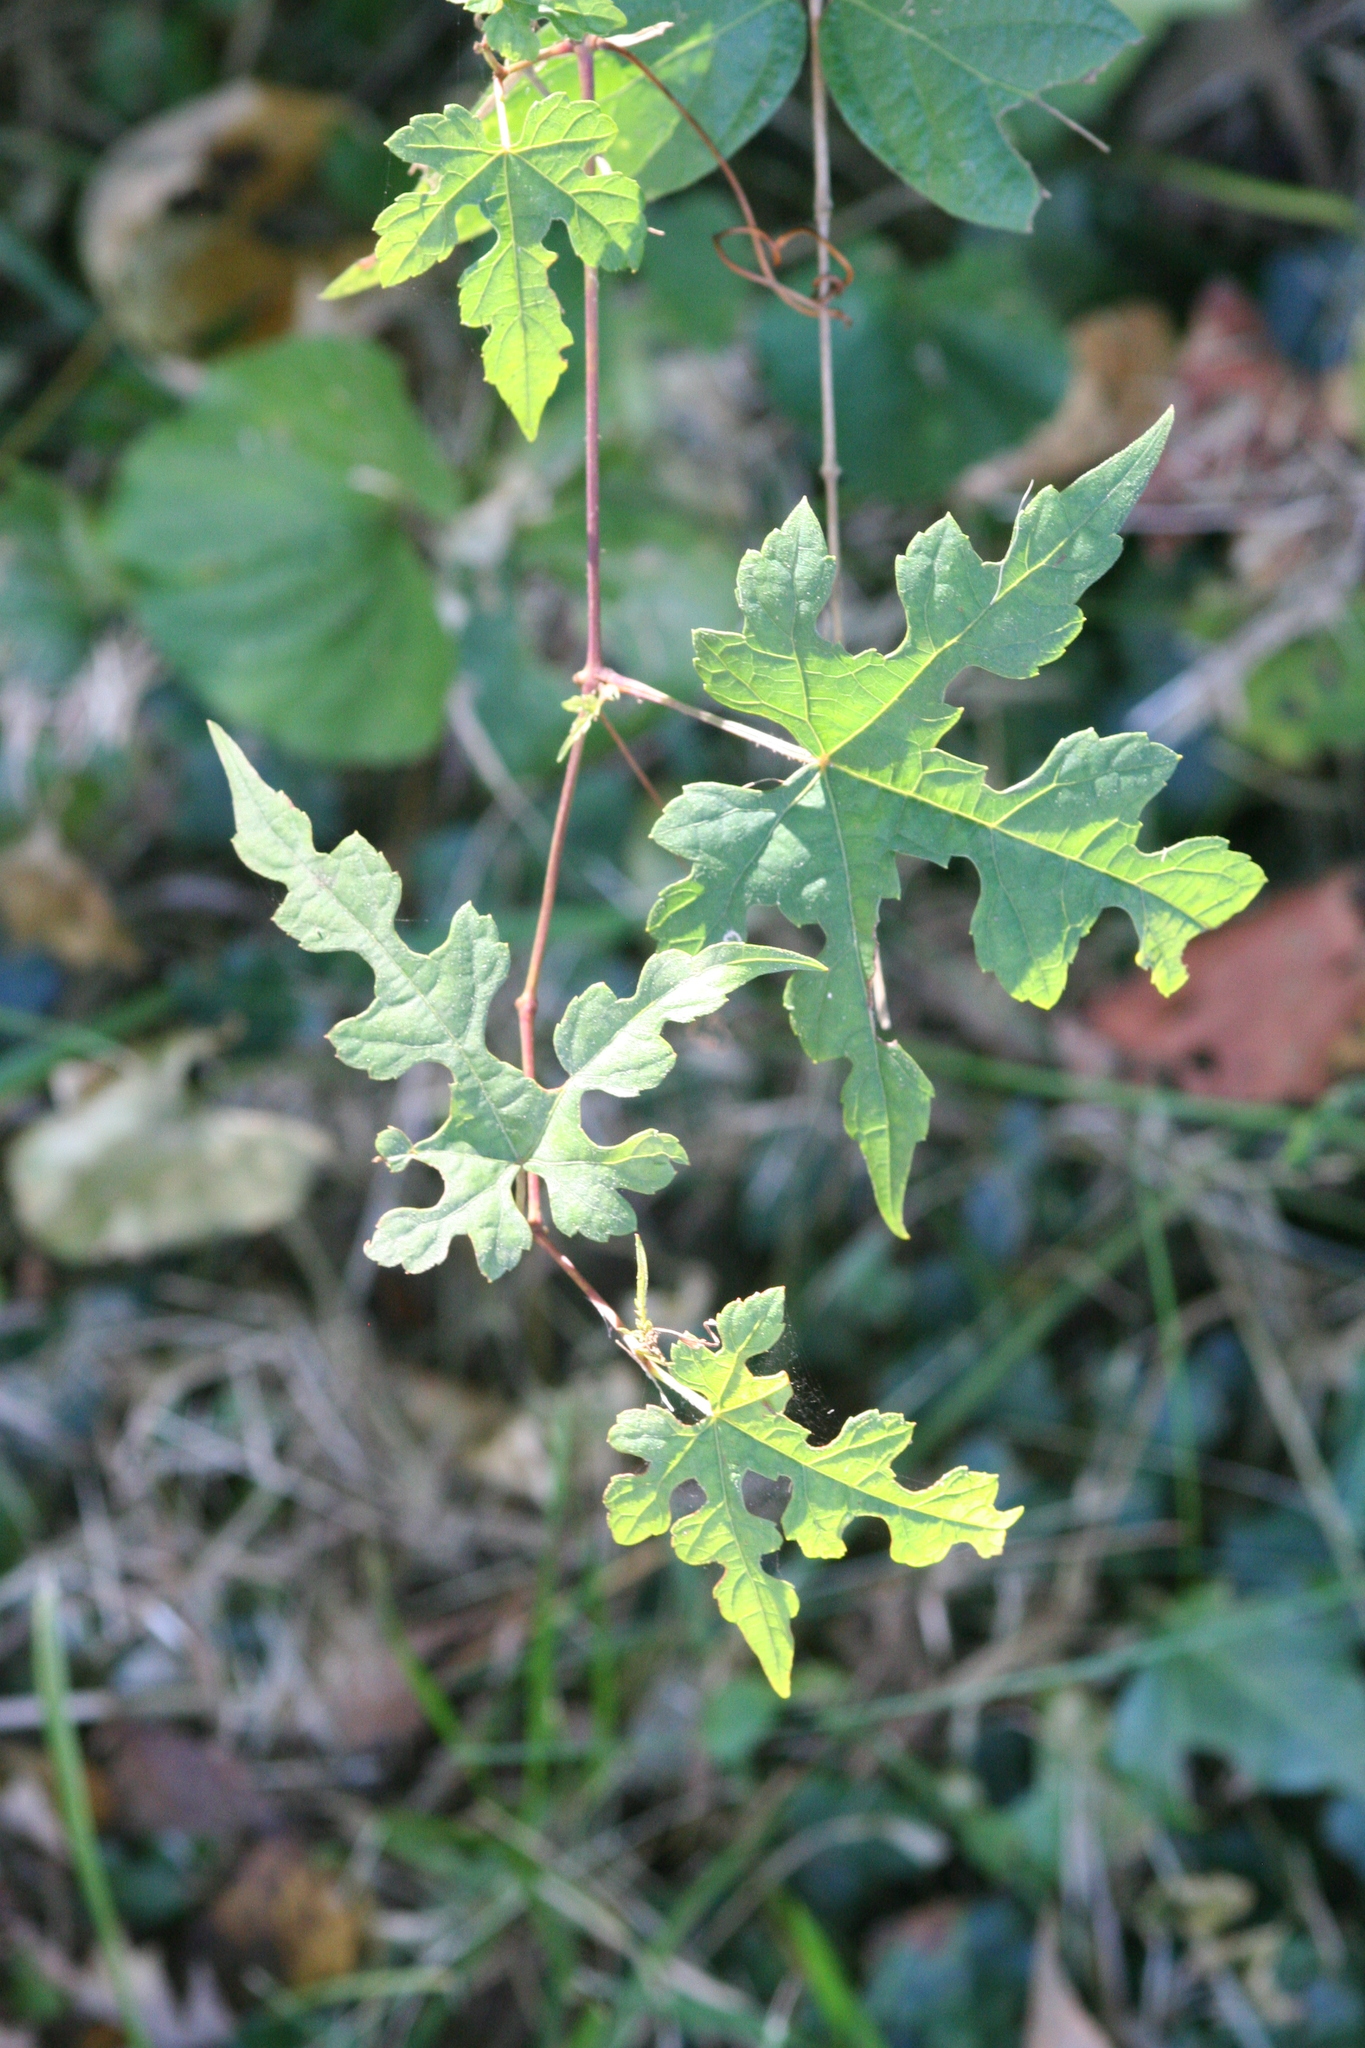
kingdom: Plantae
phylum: Tracheophyta
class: Magnoliopsida
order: Vitales
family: Vitaceae
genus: Ampelopsis
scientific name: Ampelopsis glandulosa
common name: Amur peppervine
